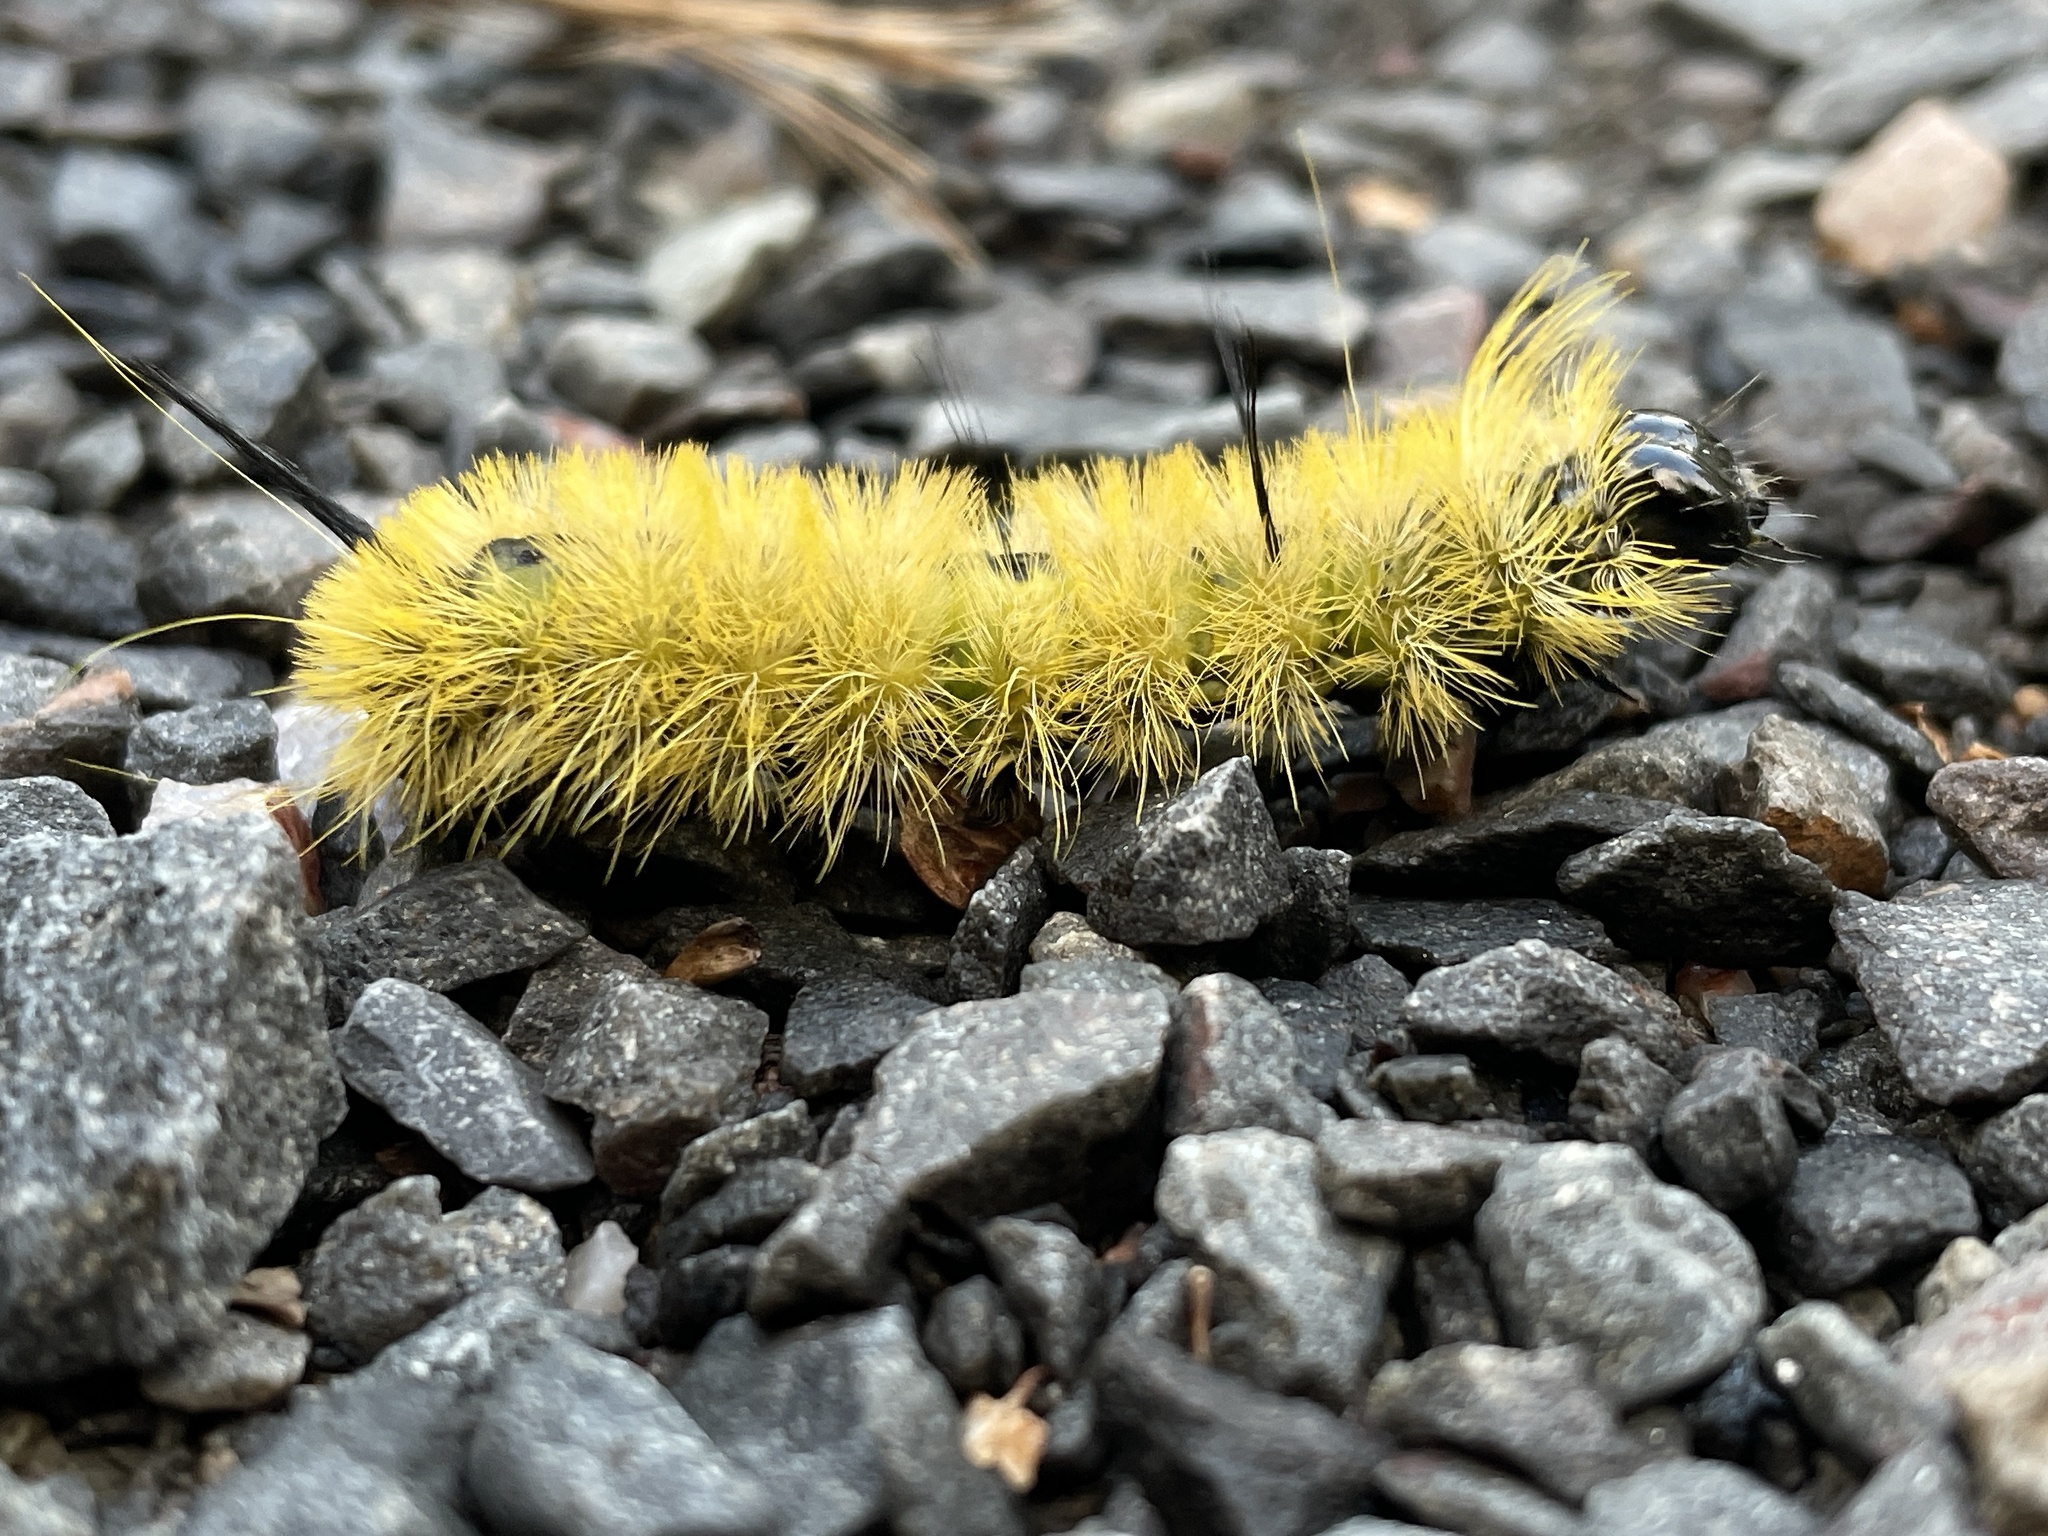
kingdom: Animalia
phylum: Arthropoda
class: Insecta
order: Lepidoptera
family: Noctuidae
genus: Acronicta
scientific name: Acronicta americana
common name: American dagger
